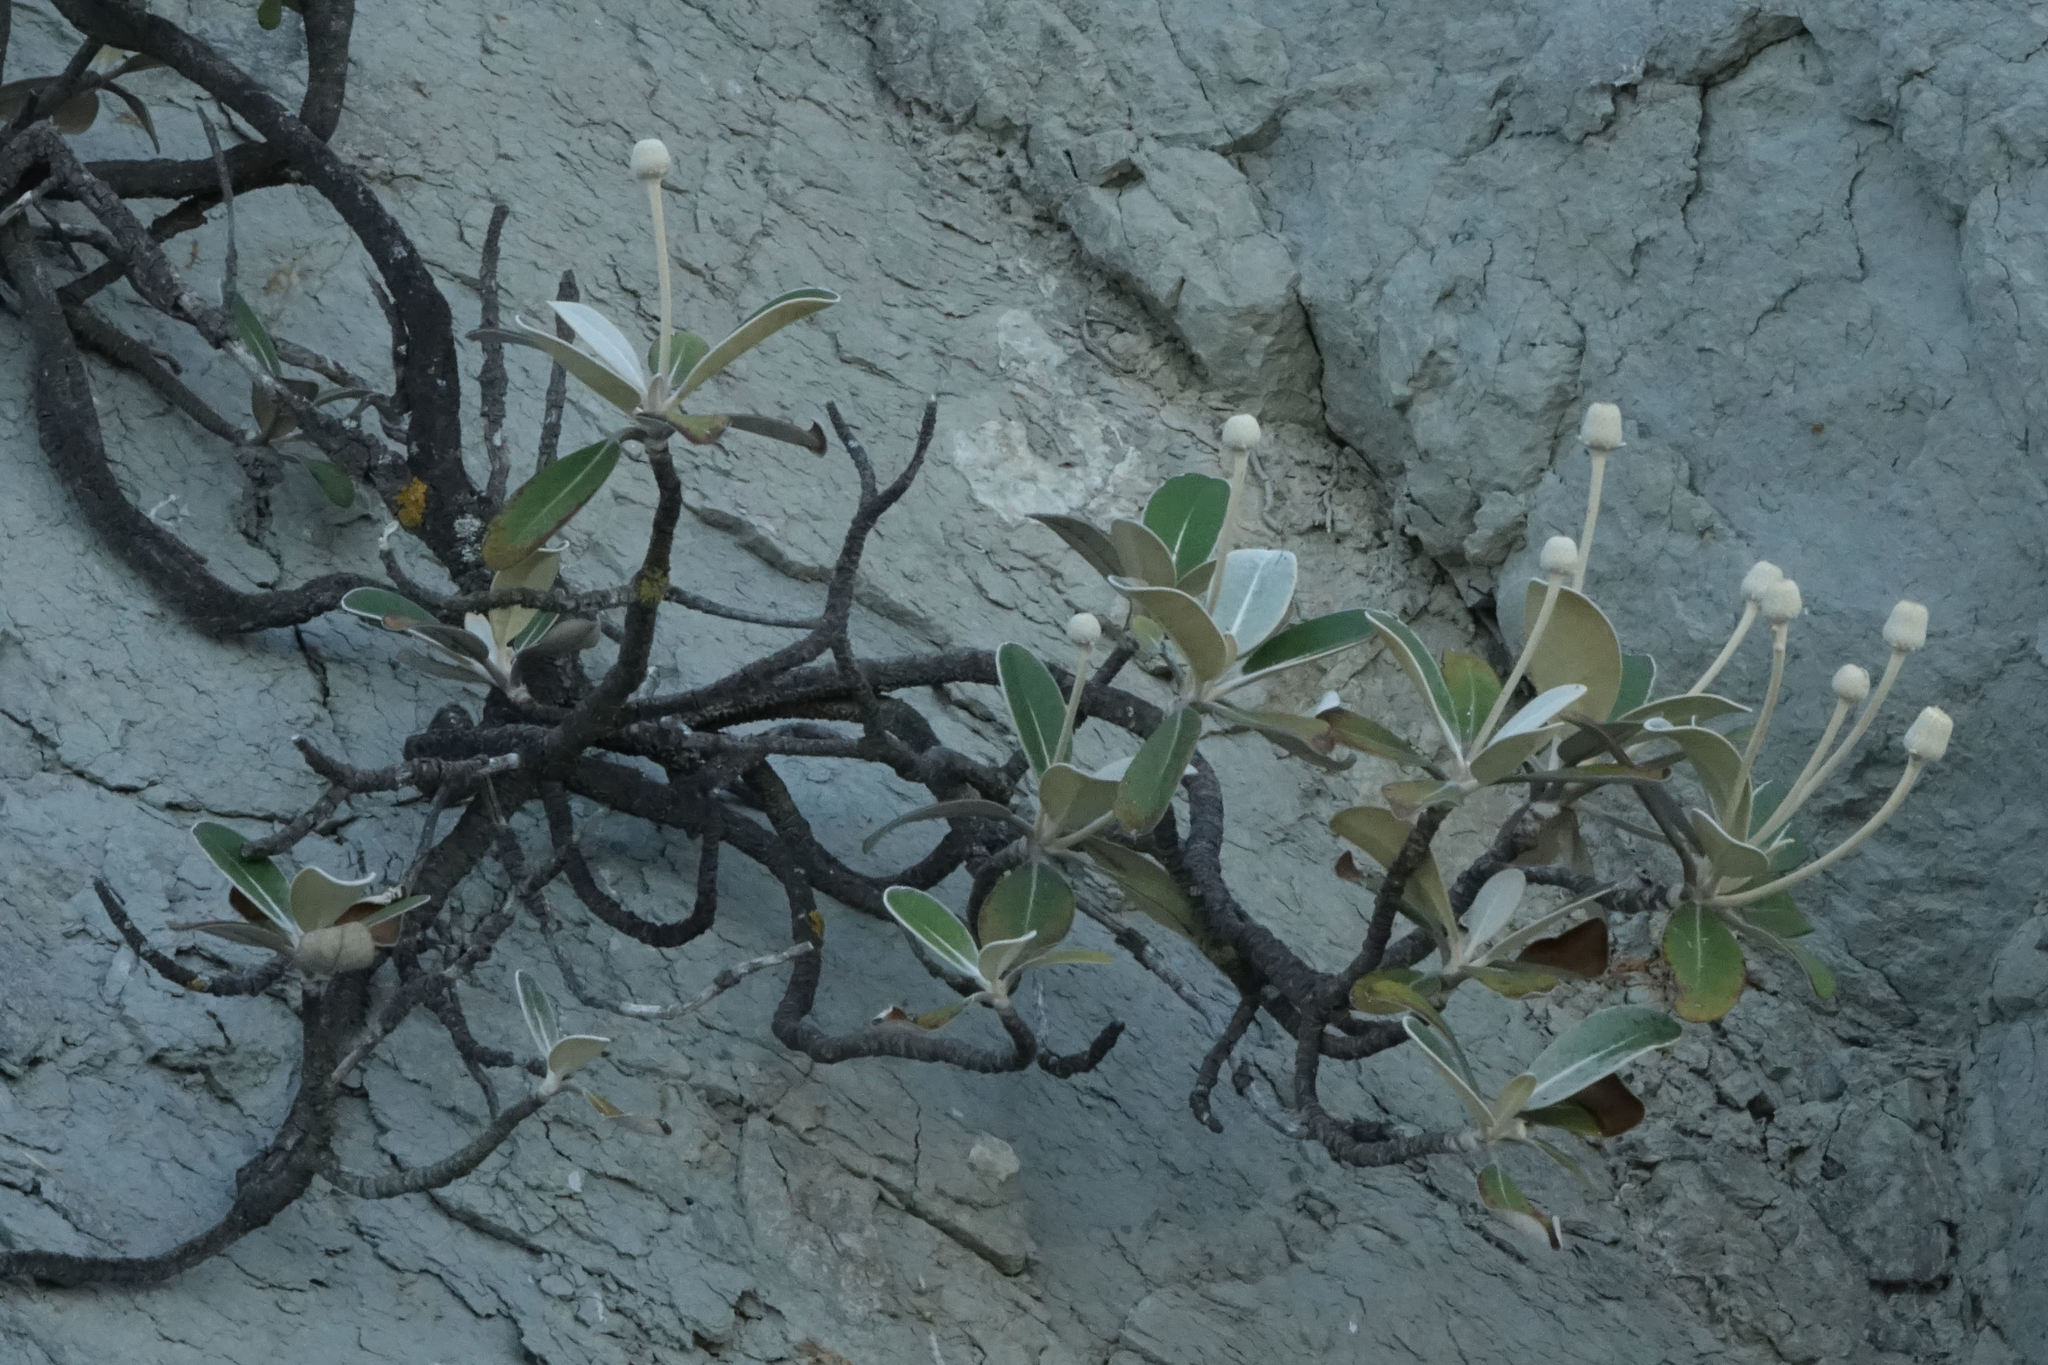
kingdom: Plantae
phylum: Tracheophyta
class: Magnoliopsida
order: Asterales
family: Asteraceae
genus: Pachystegia
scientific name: Pachystegia insignis
